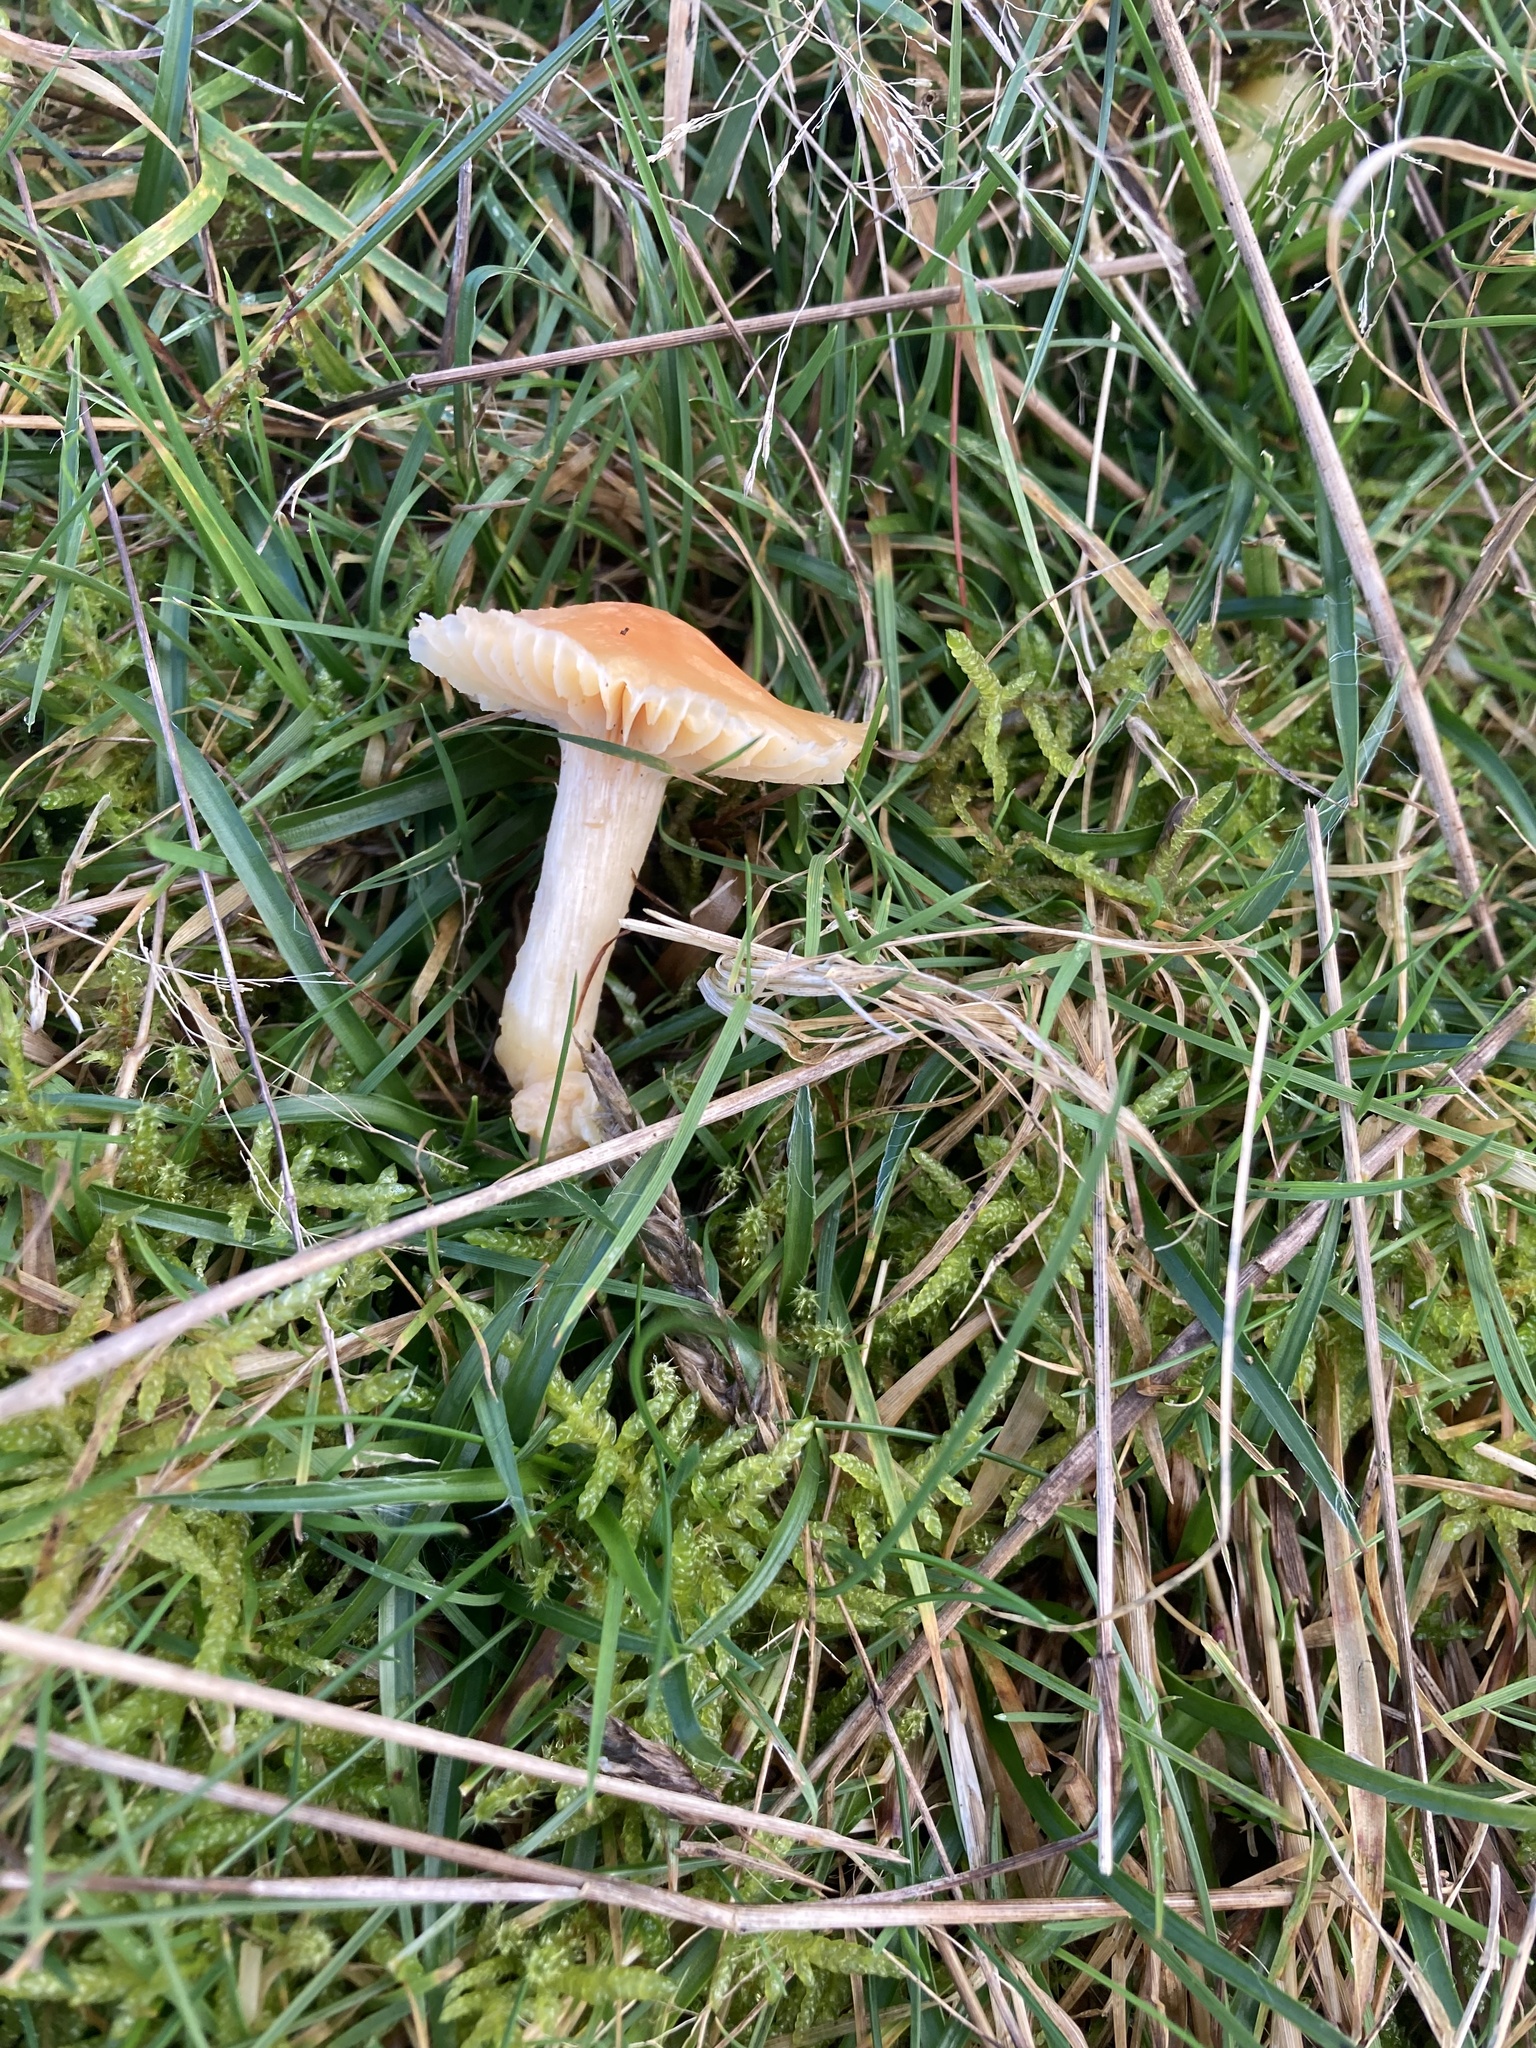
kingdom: Fungi
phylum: Basidiomycota
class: Agaricomycetes
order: Agaricales
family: Hygrophoraceae
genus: Cuphophyllus
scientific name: Cuphophyllus pratensis
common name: Meadow waxcap
